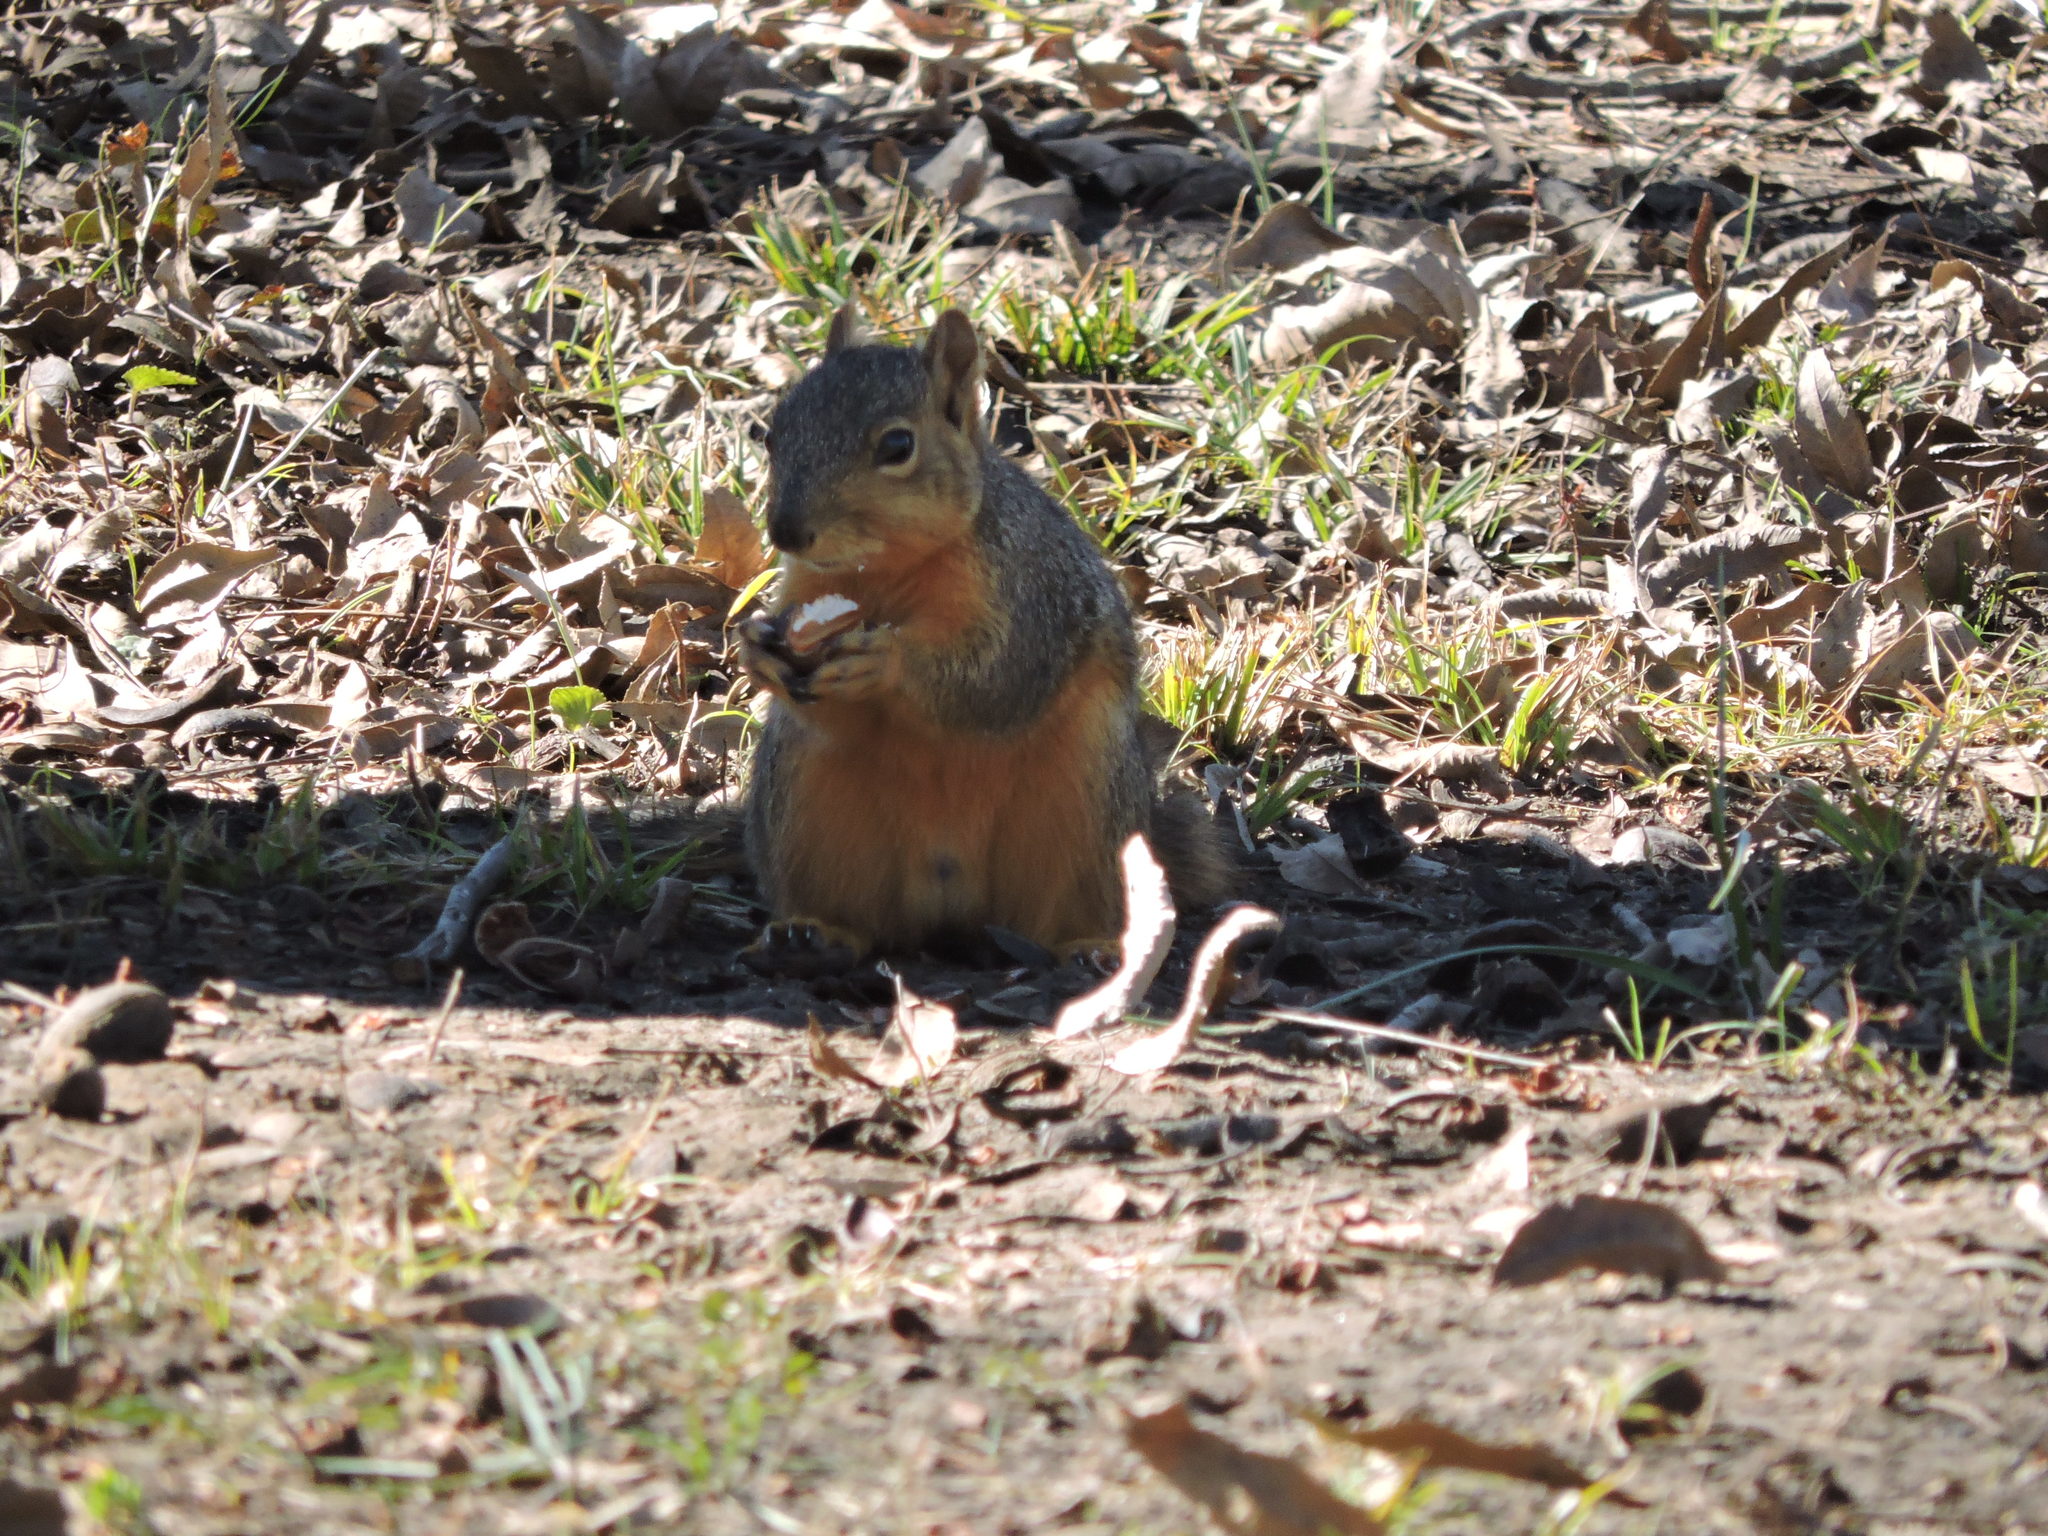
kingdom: Animalia
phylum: Chordata
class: Mammalia
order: Rodentia
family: Sciuridae
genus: Sciurus
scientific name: Sciurus niger
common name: Fox squirrel
